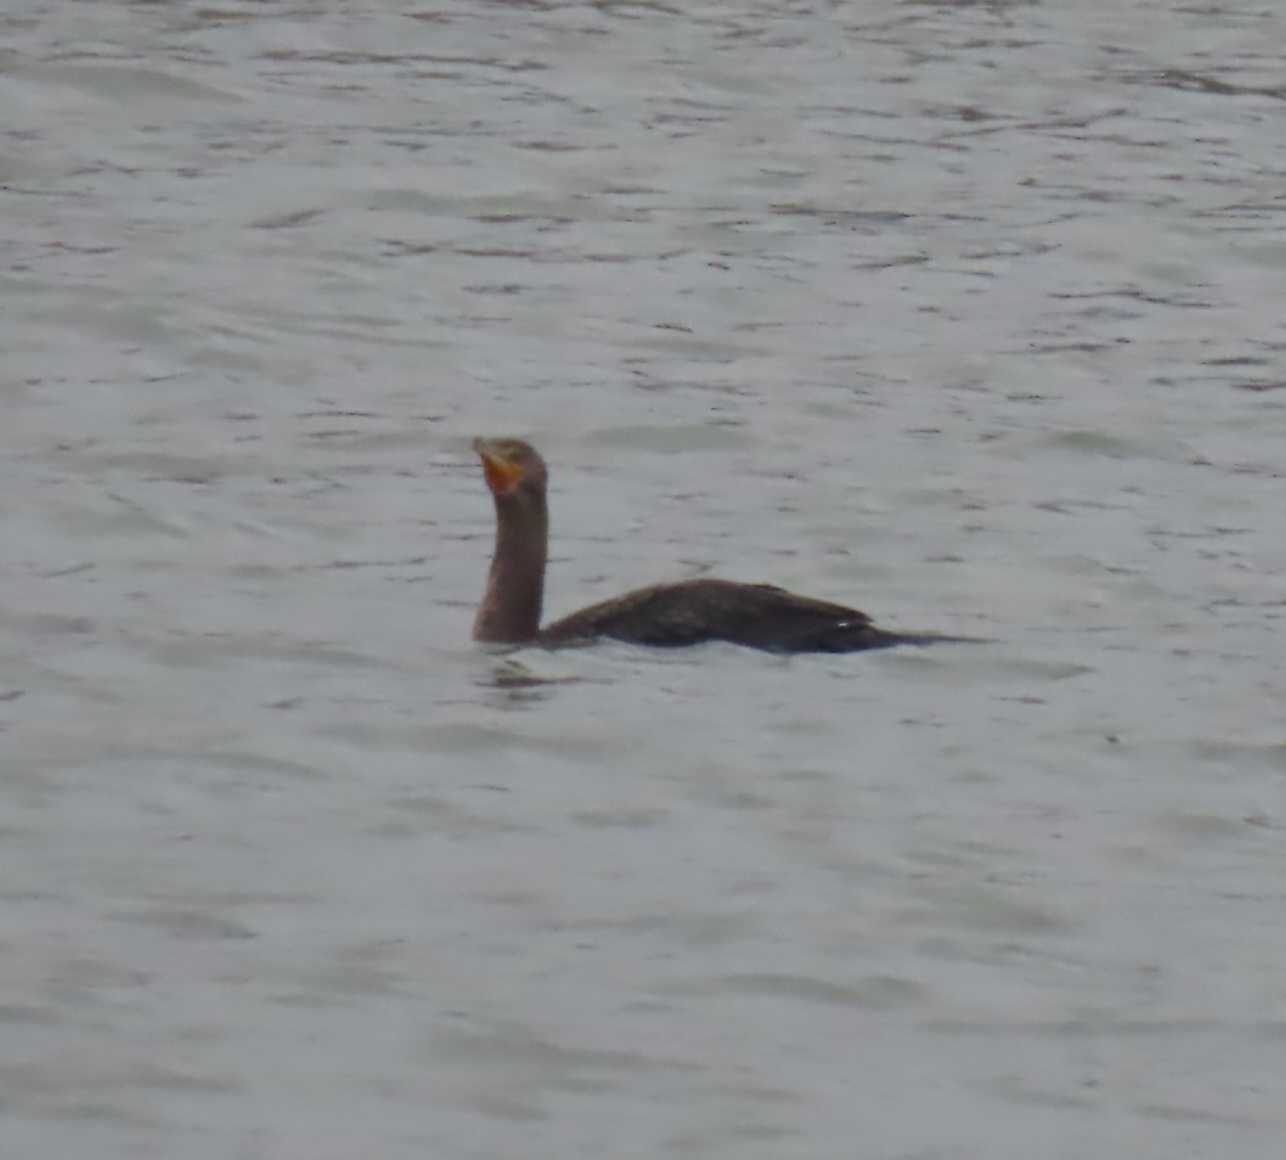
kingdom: Animalia
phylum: Chordata
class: Aves
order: Suliformes
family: Phalacrocoracidae
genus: Phalacrocorax
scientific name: Phalacrocorax auritus
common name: Double-crested cormorant
